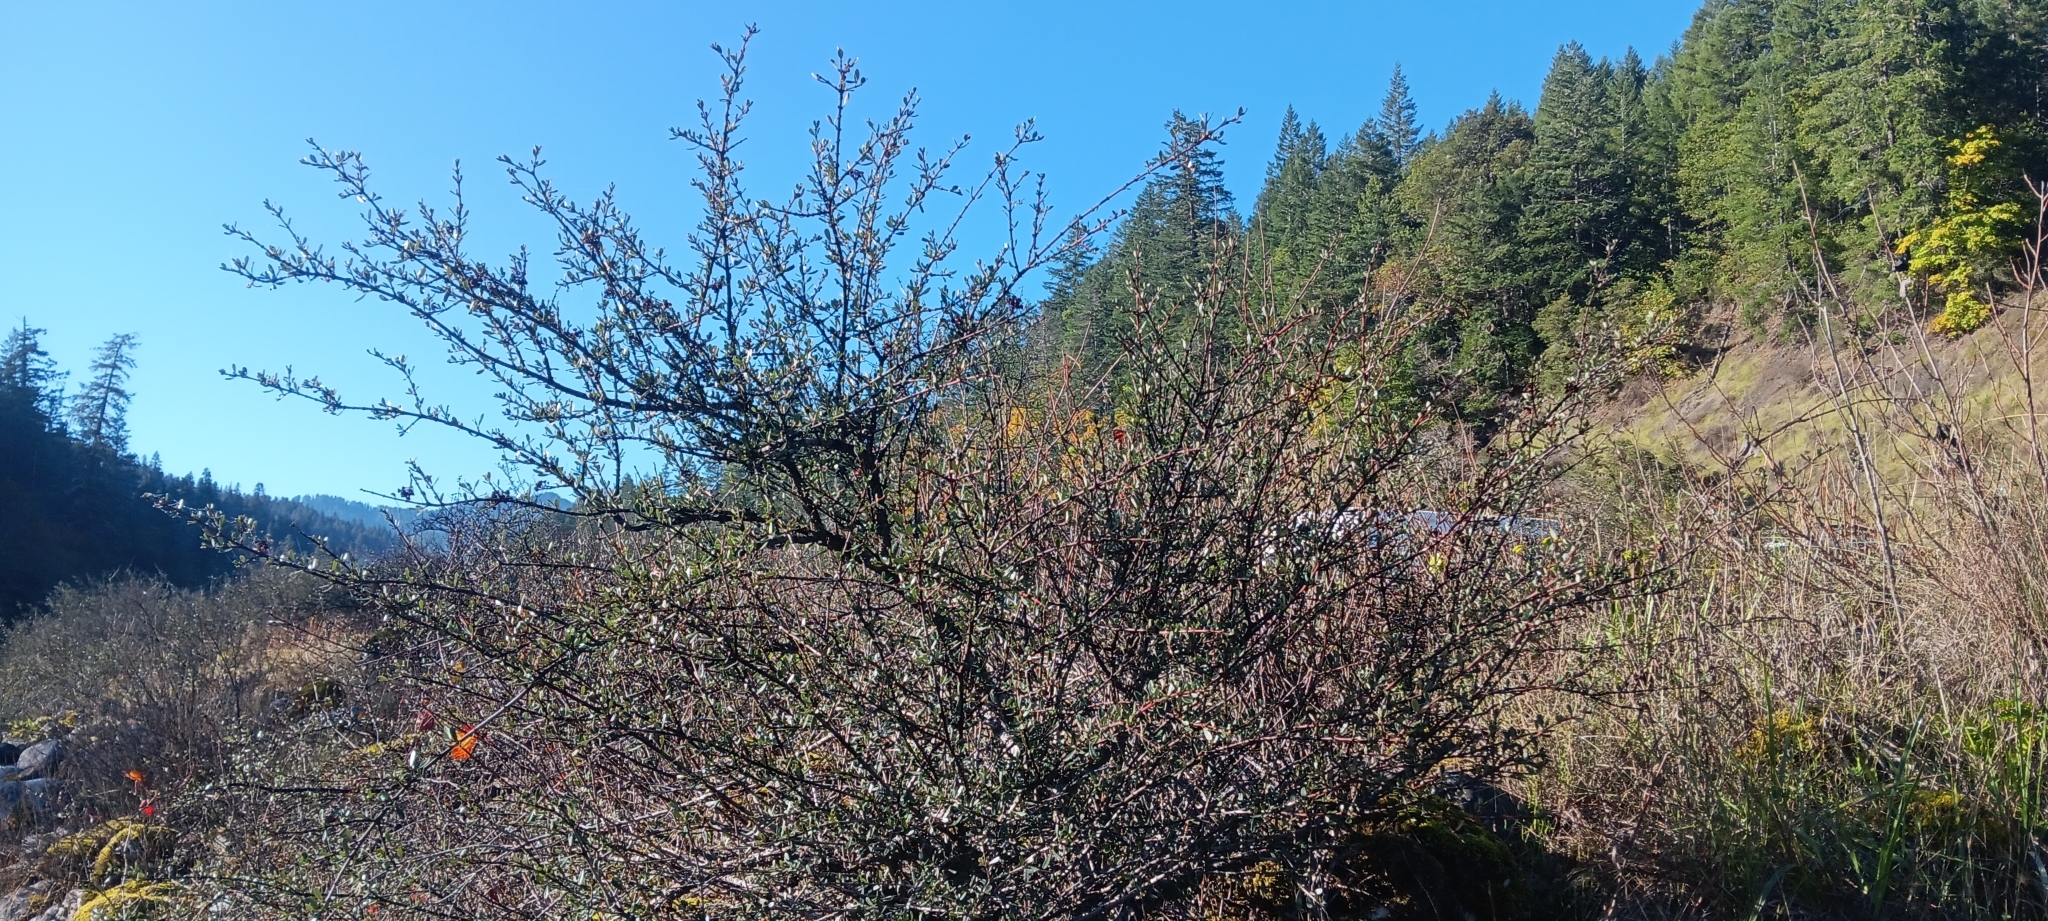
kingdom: Plantae
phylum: Tracheophyta
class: Magnoliopsida
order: Rosales
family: Rhamnaceae
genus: Ceanothus
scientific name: Ceanothus cuneatus
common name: Cuneate ceanothus
